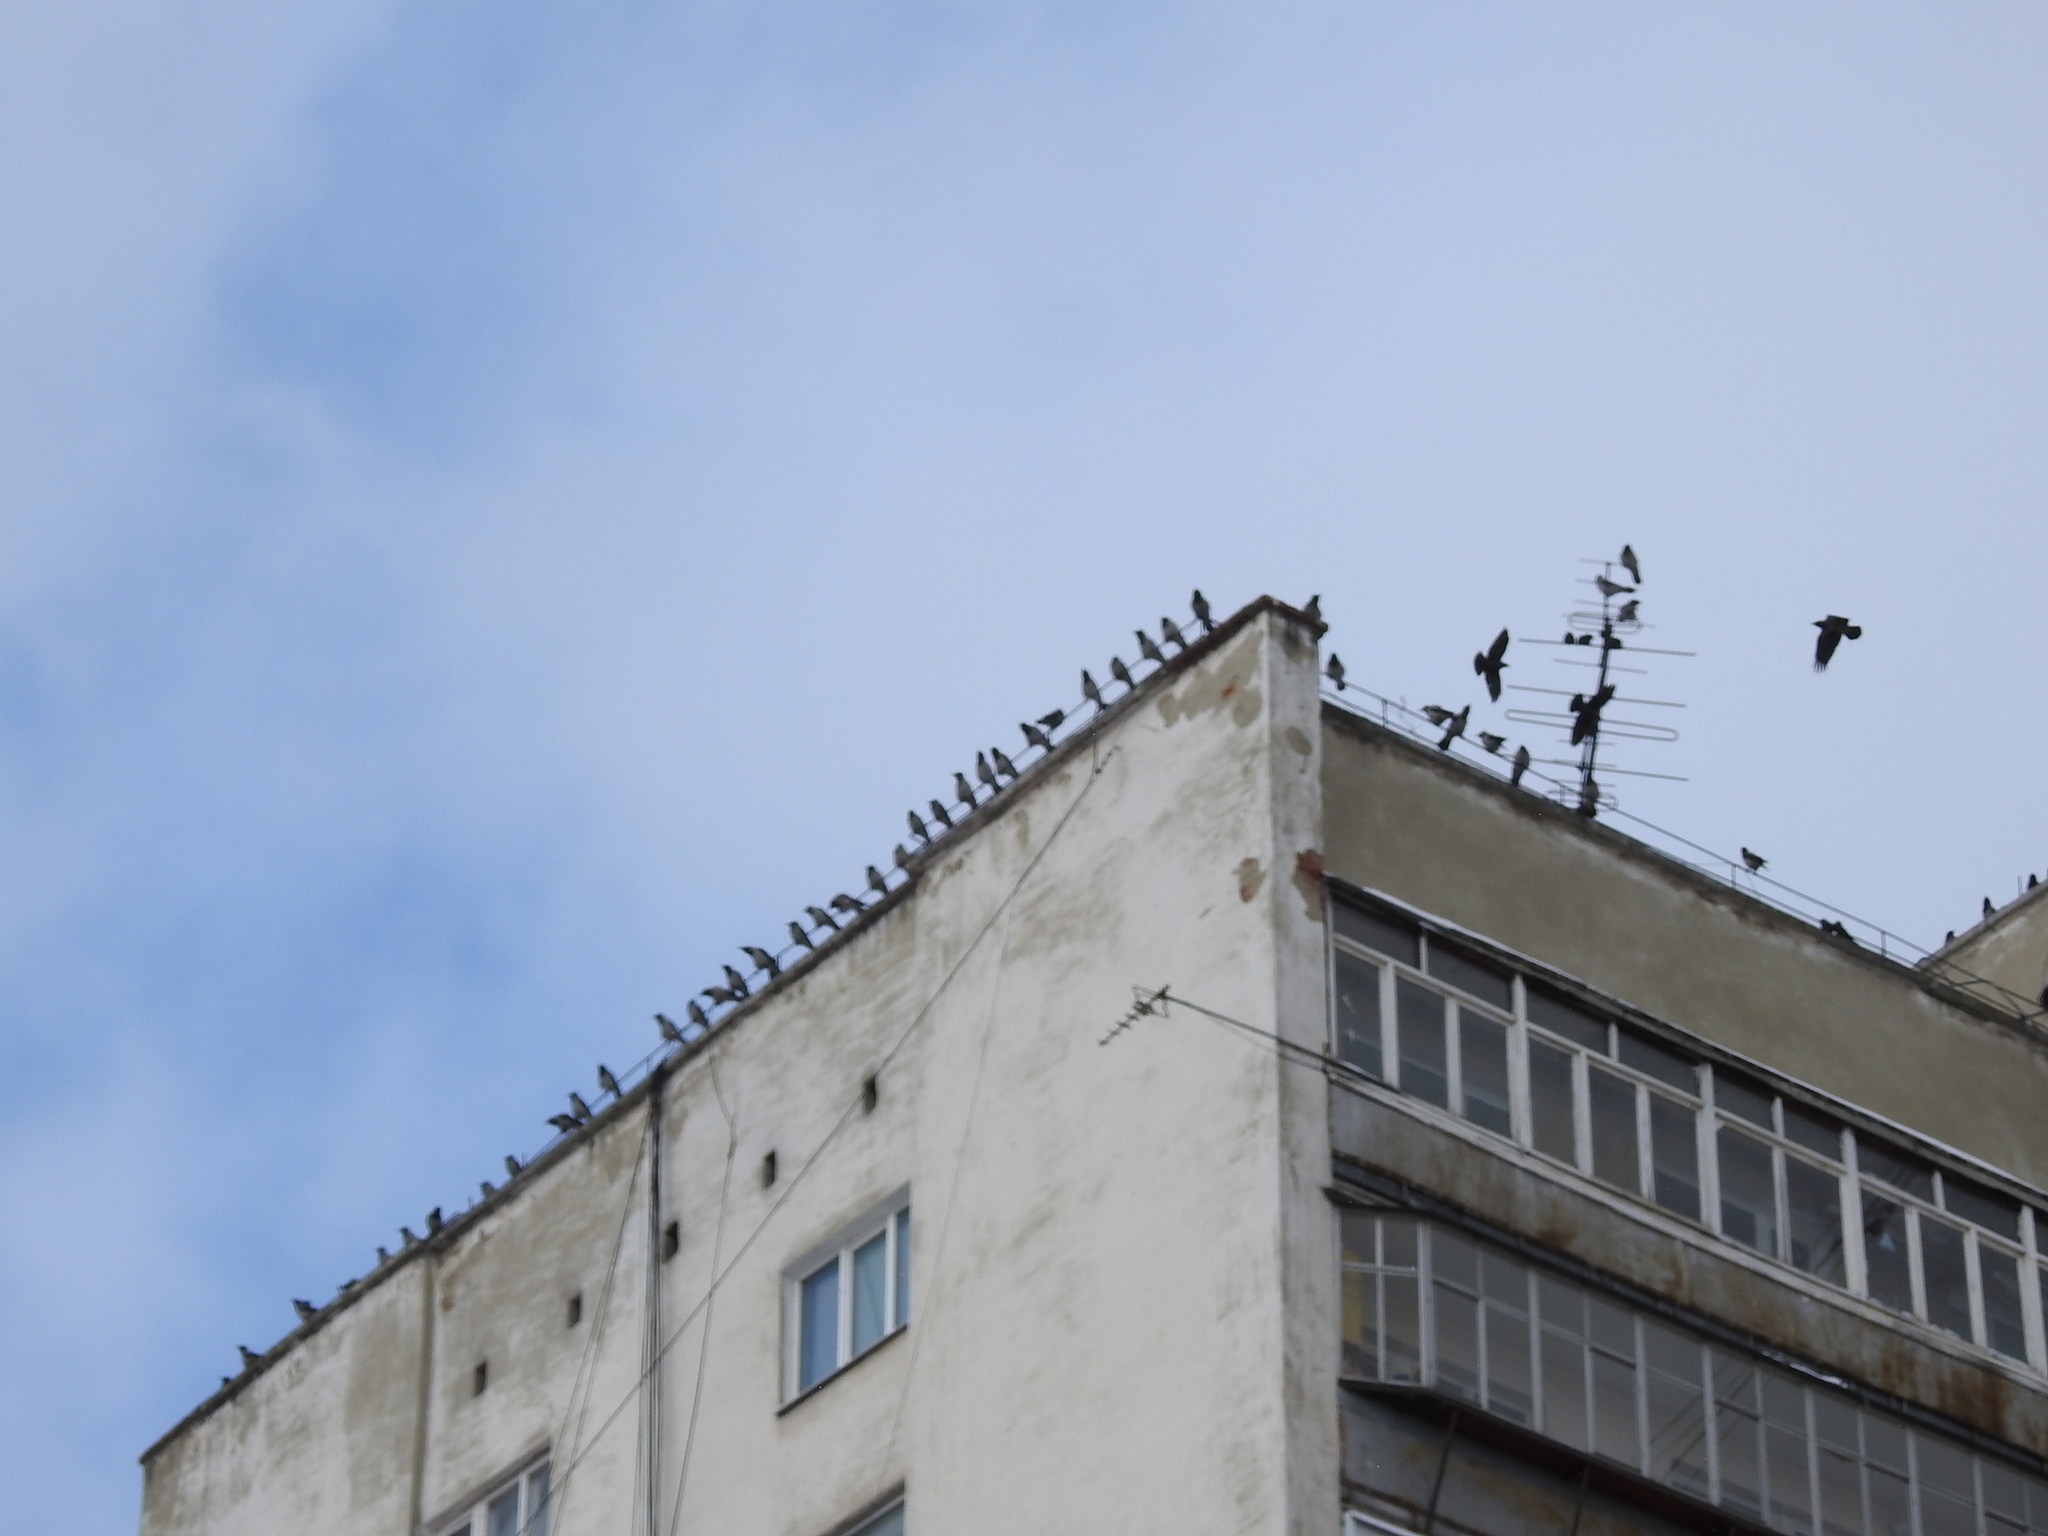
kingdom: Animalia
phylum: Chordata
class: Aves
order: Passeriformes
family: Corvidae
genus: Corvus
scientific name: Corvus cornix
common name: Hooded crow
